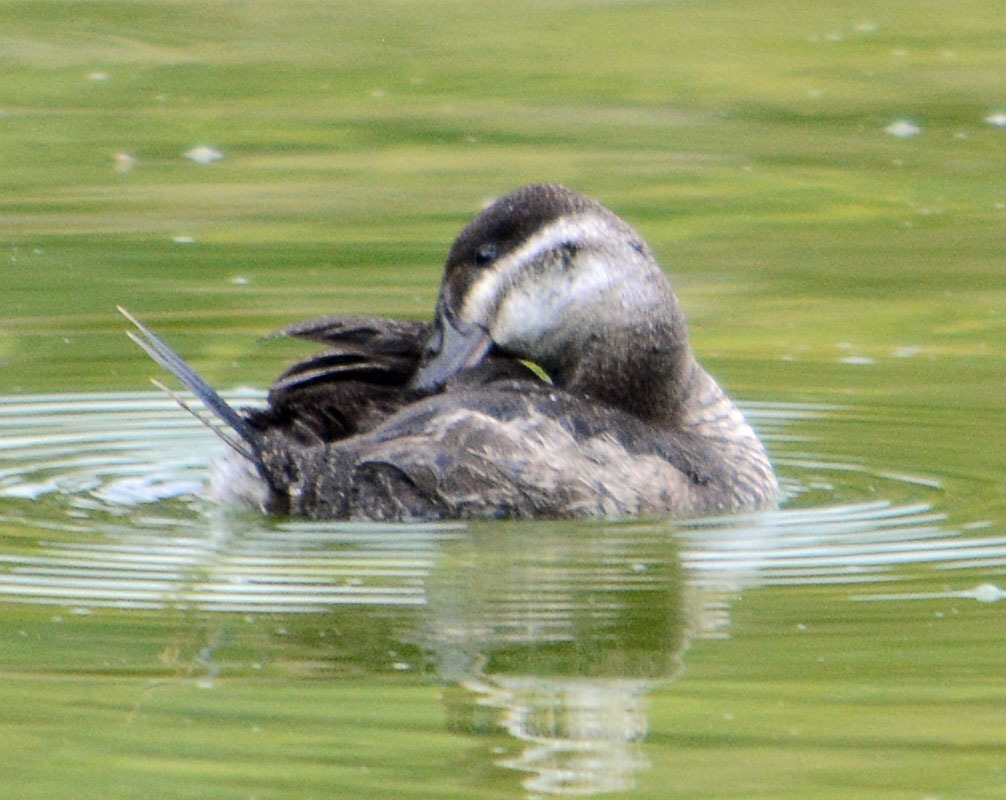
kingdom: Animalia
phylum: Chordata
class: Aves
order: Anseriformes
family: Anatidae
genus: Oxyura
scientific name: Oxyura jamaicensis
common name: Ruddy duck
